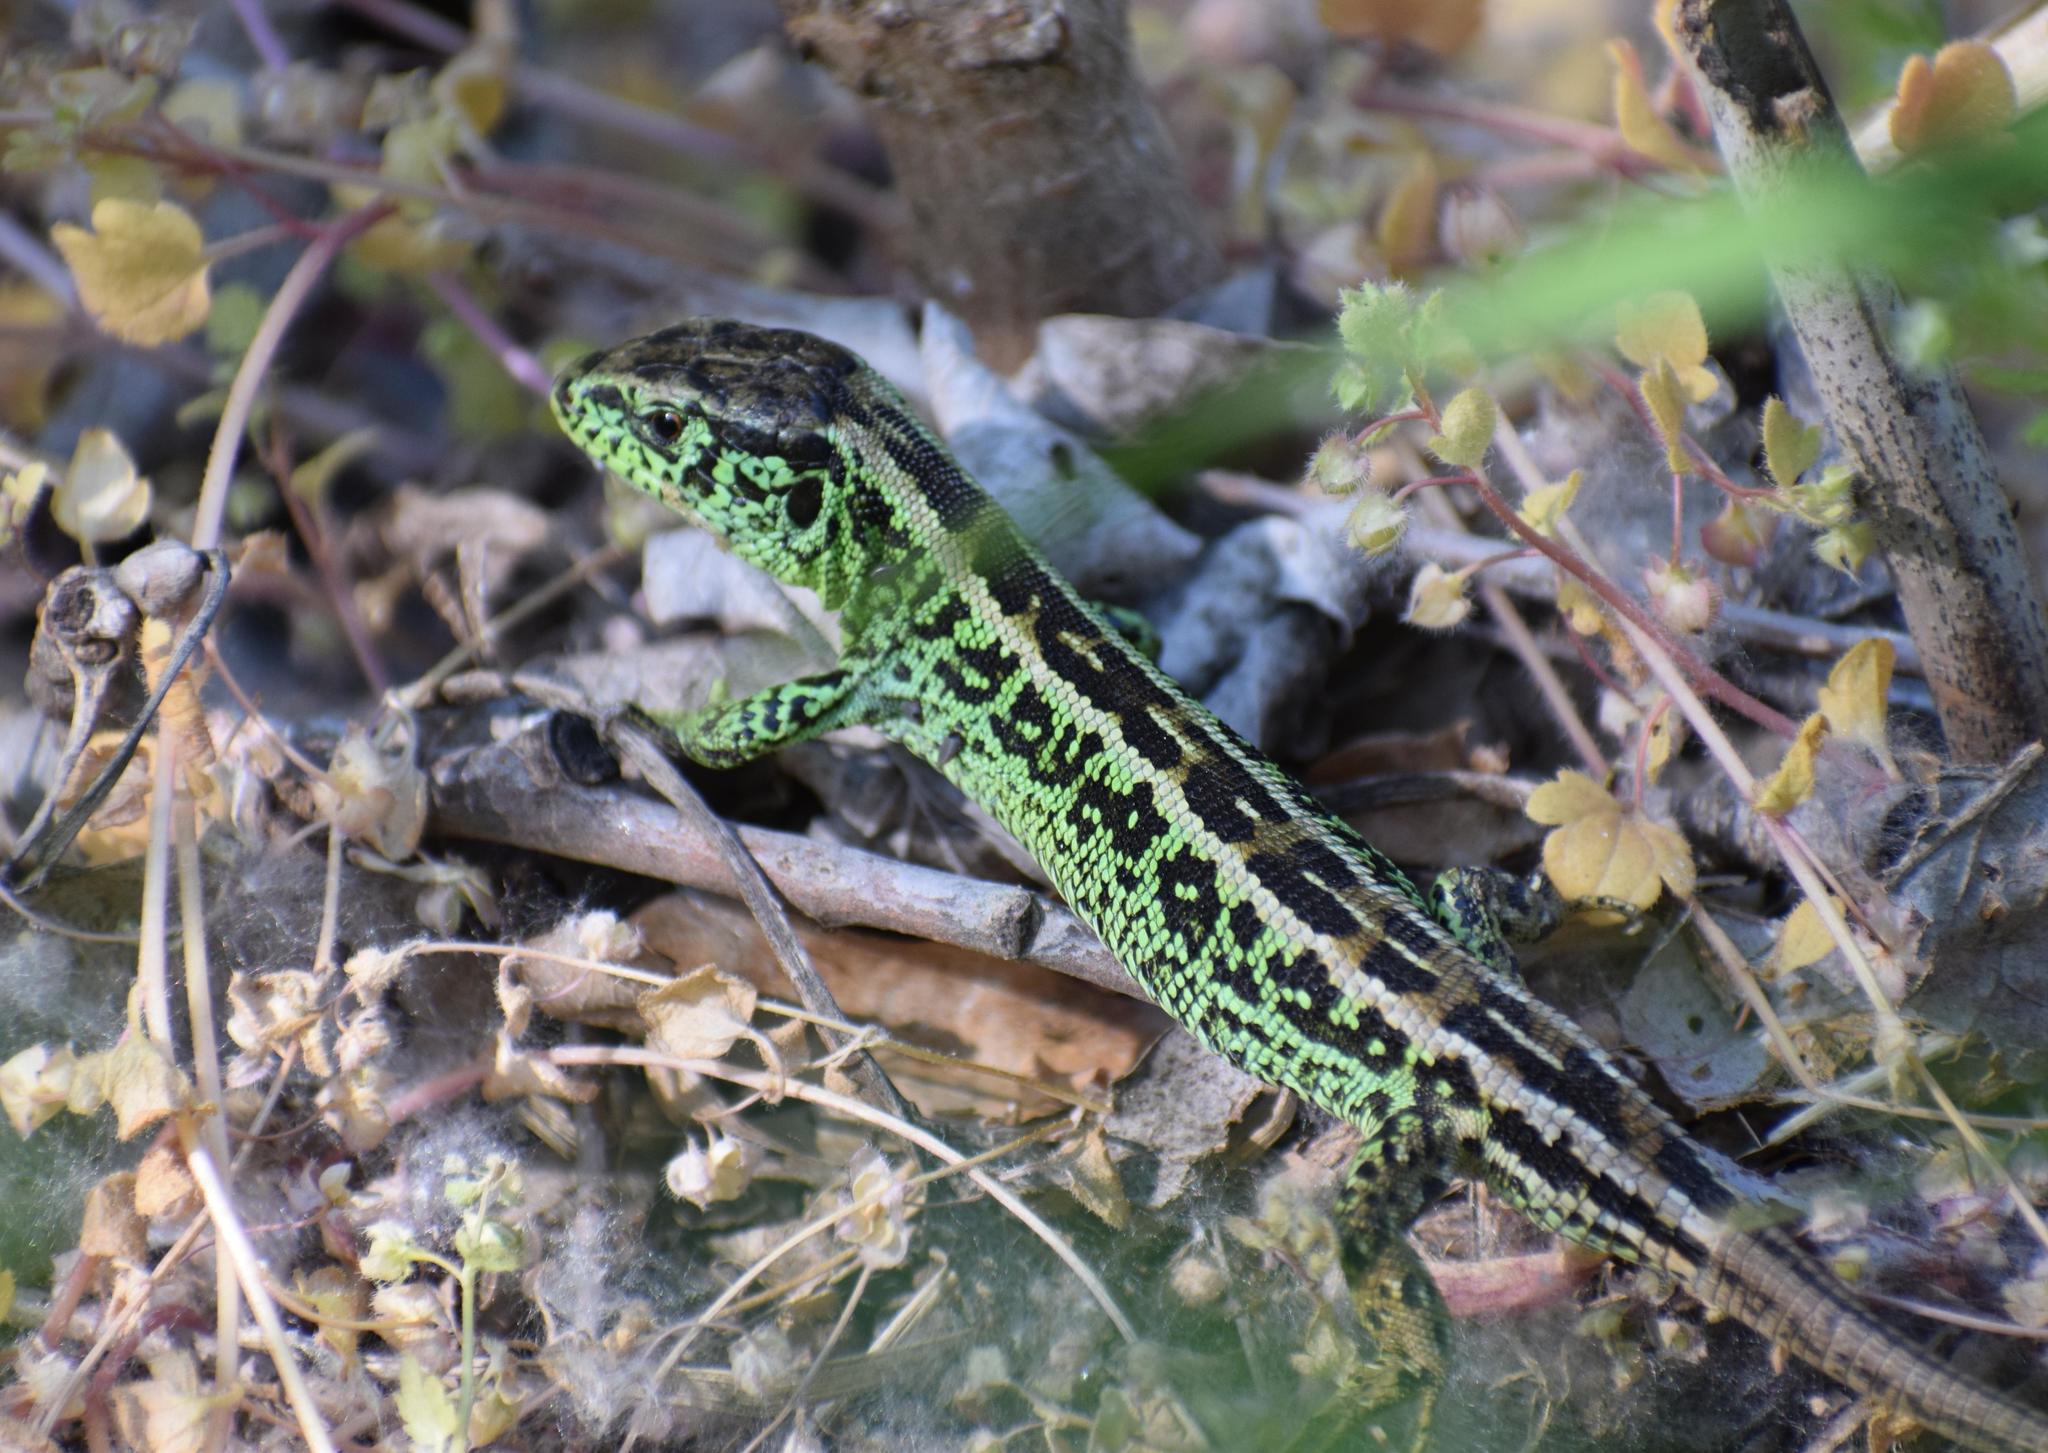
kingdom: Animalia
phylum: Chordata
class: Squamata
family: Lacertidae
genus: Lacerta
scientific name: Lacerta agilis
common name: Sand lizard
